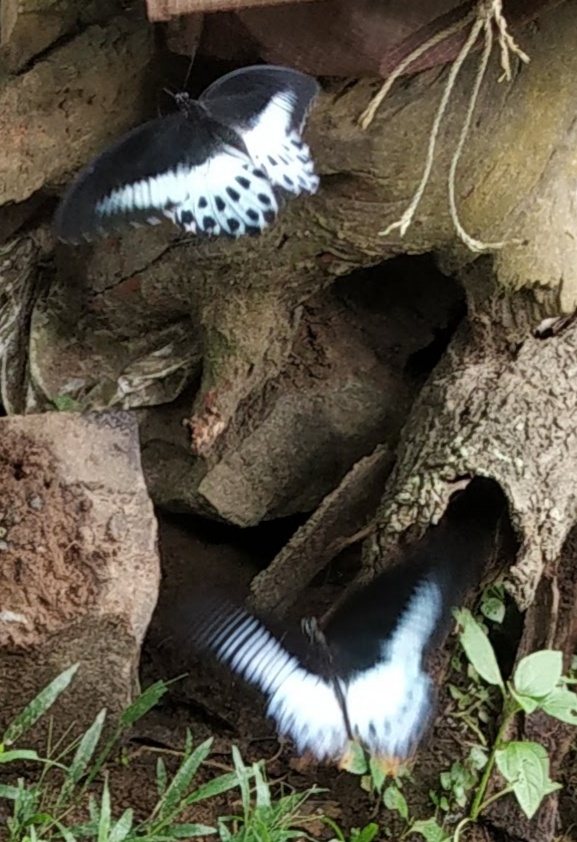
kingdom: Animalia
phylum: Arthropoda
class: Insecta
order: Lepidoptera
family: Papilionidae
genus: Papilio
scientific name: Papilio memnon
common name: Great mormon
